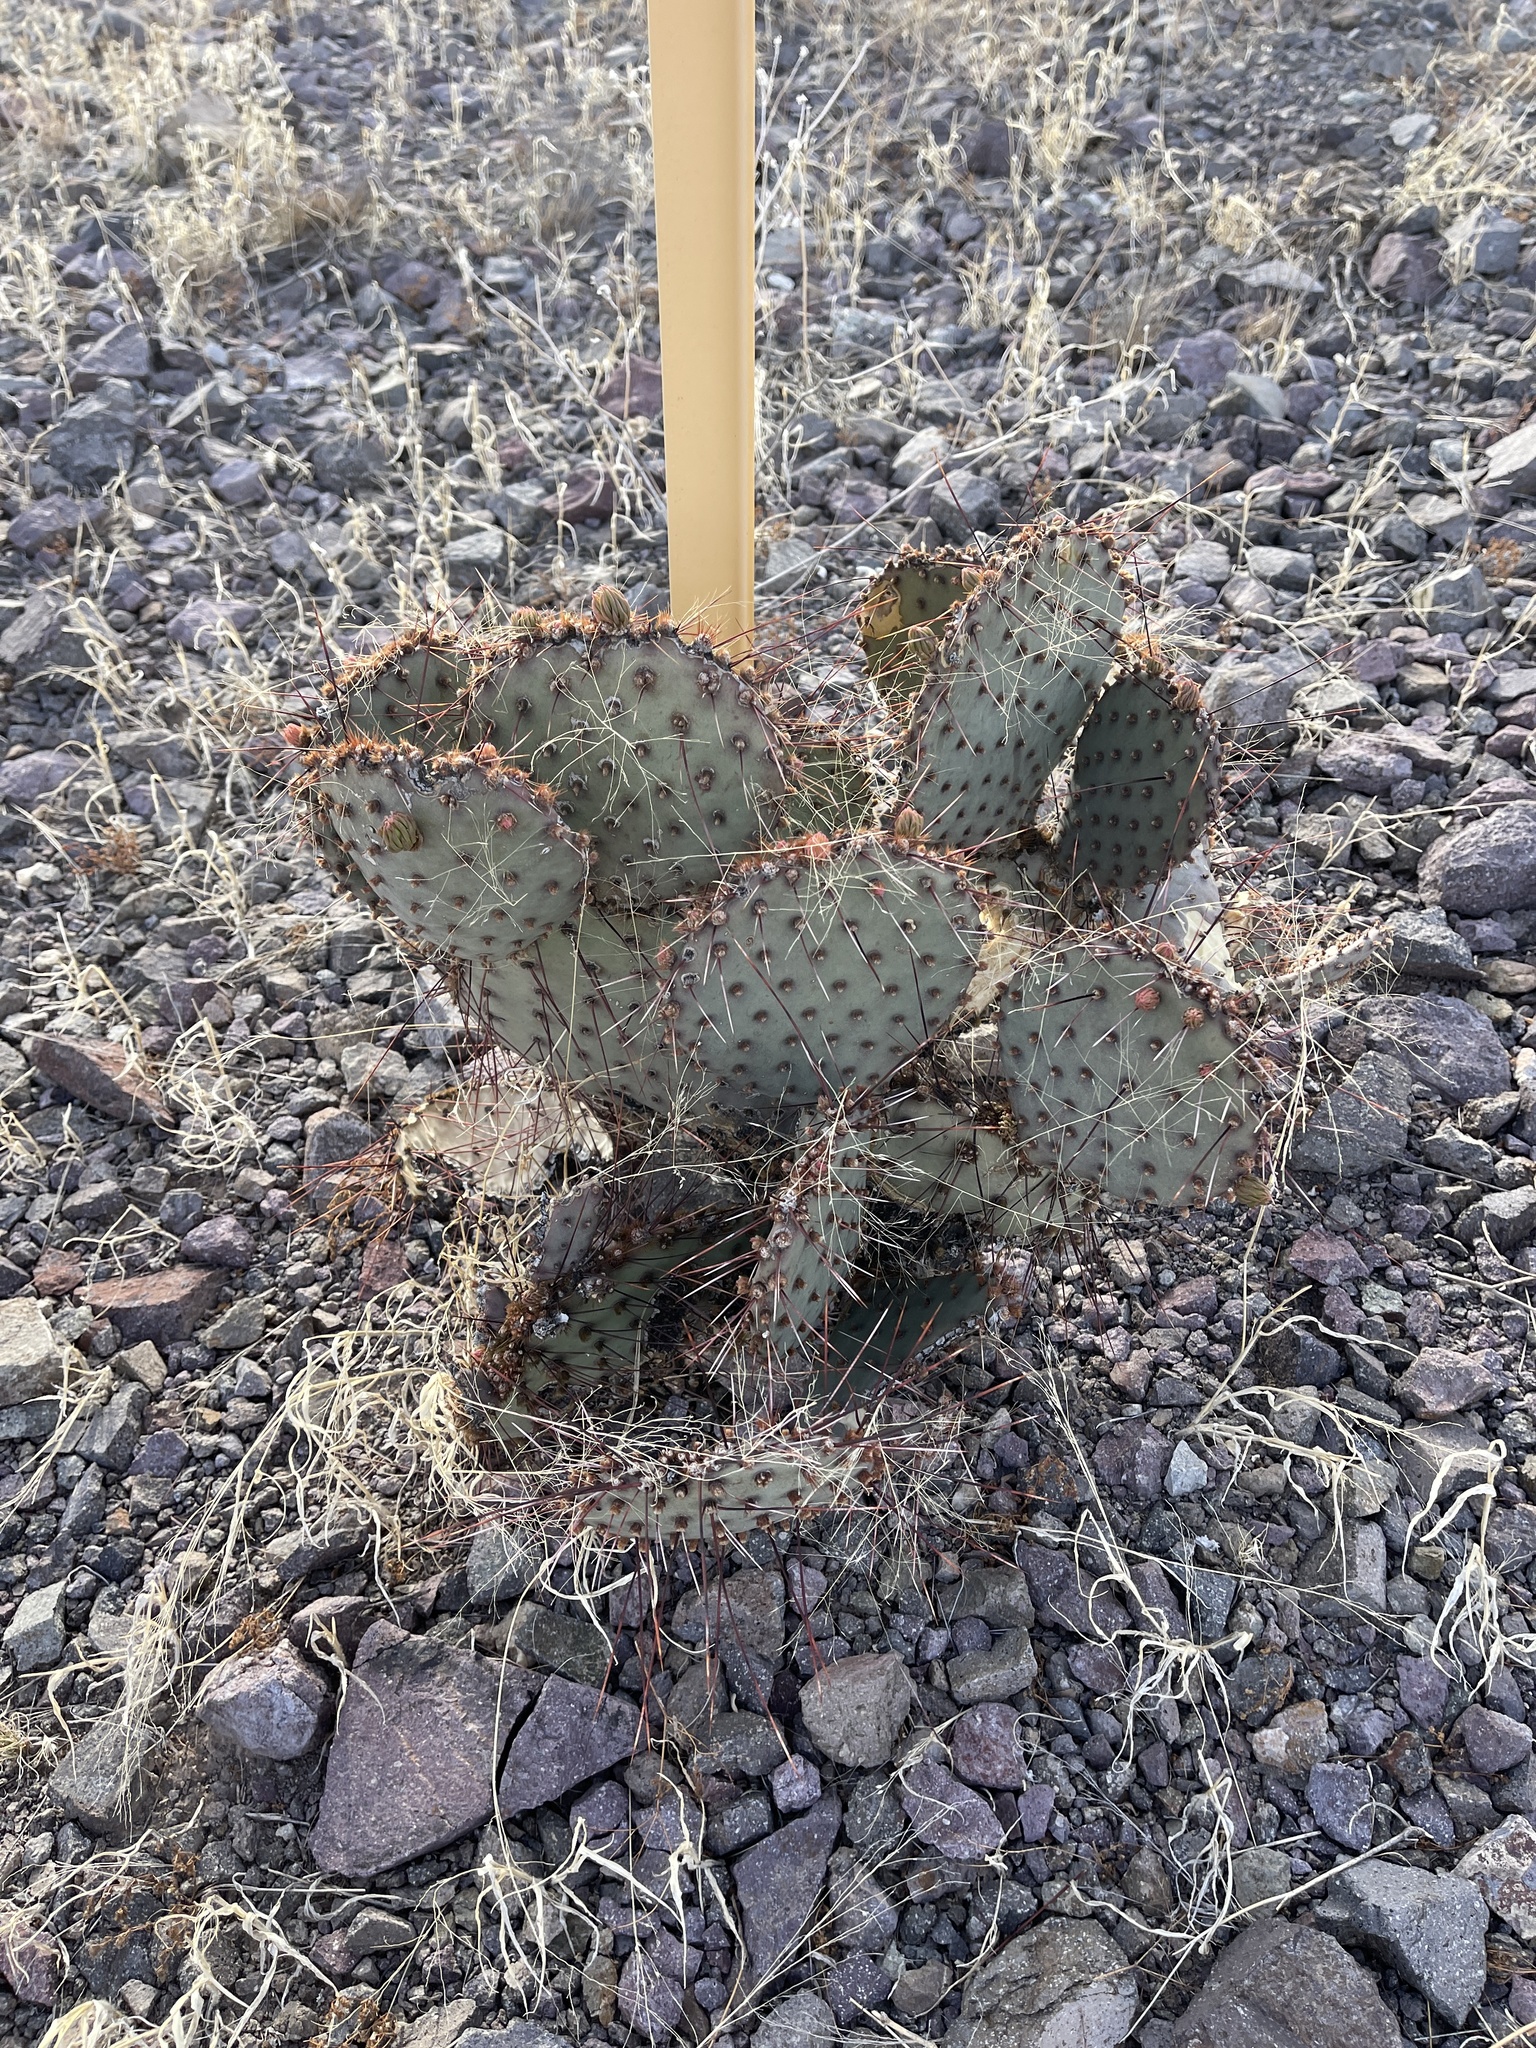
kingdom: Plantae
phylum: Tracheophyta
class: Magnoliopsida
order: Caryophyllales
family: Cactaceae
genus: Opuntia
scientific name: Opuntia macrocentra
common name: Purple prickly-pear
